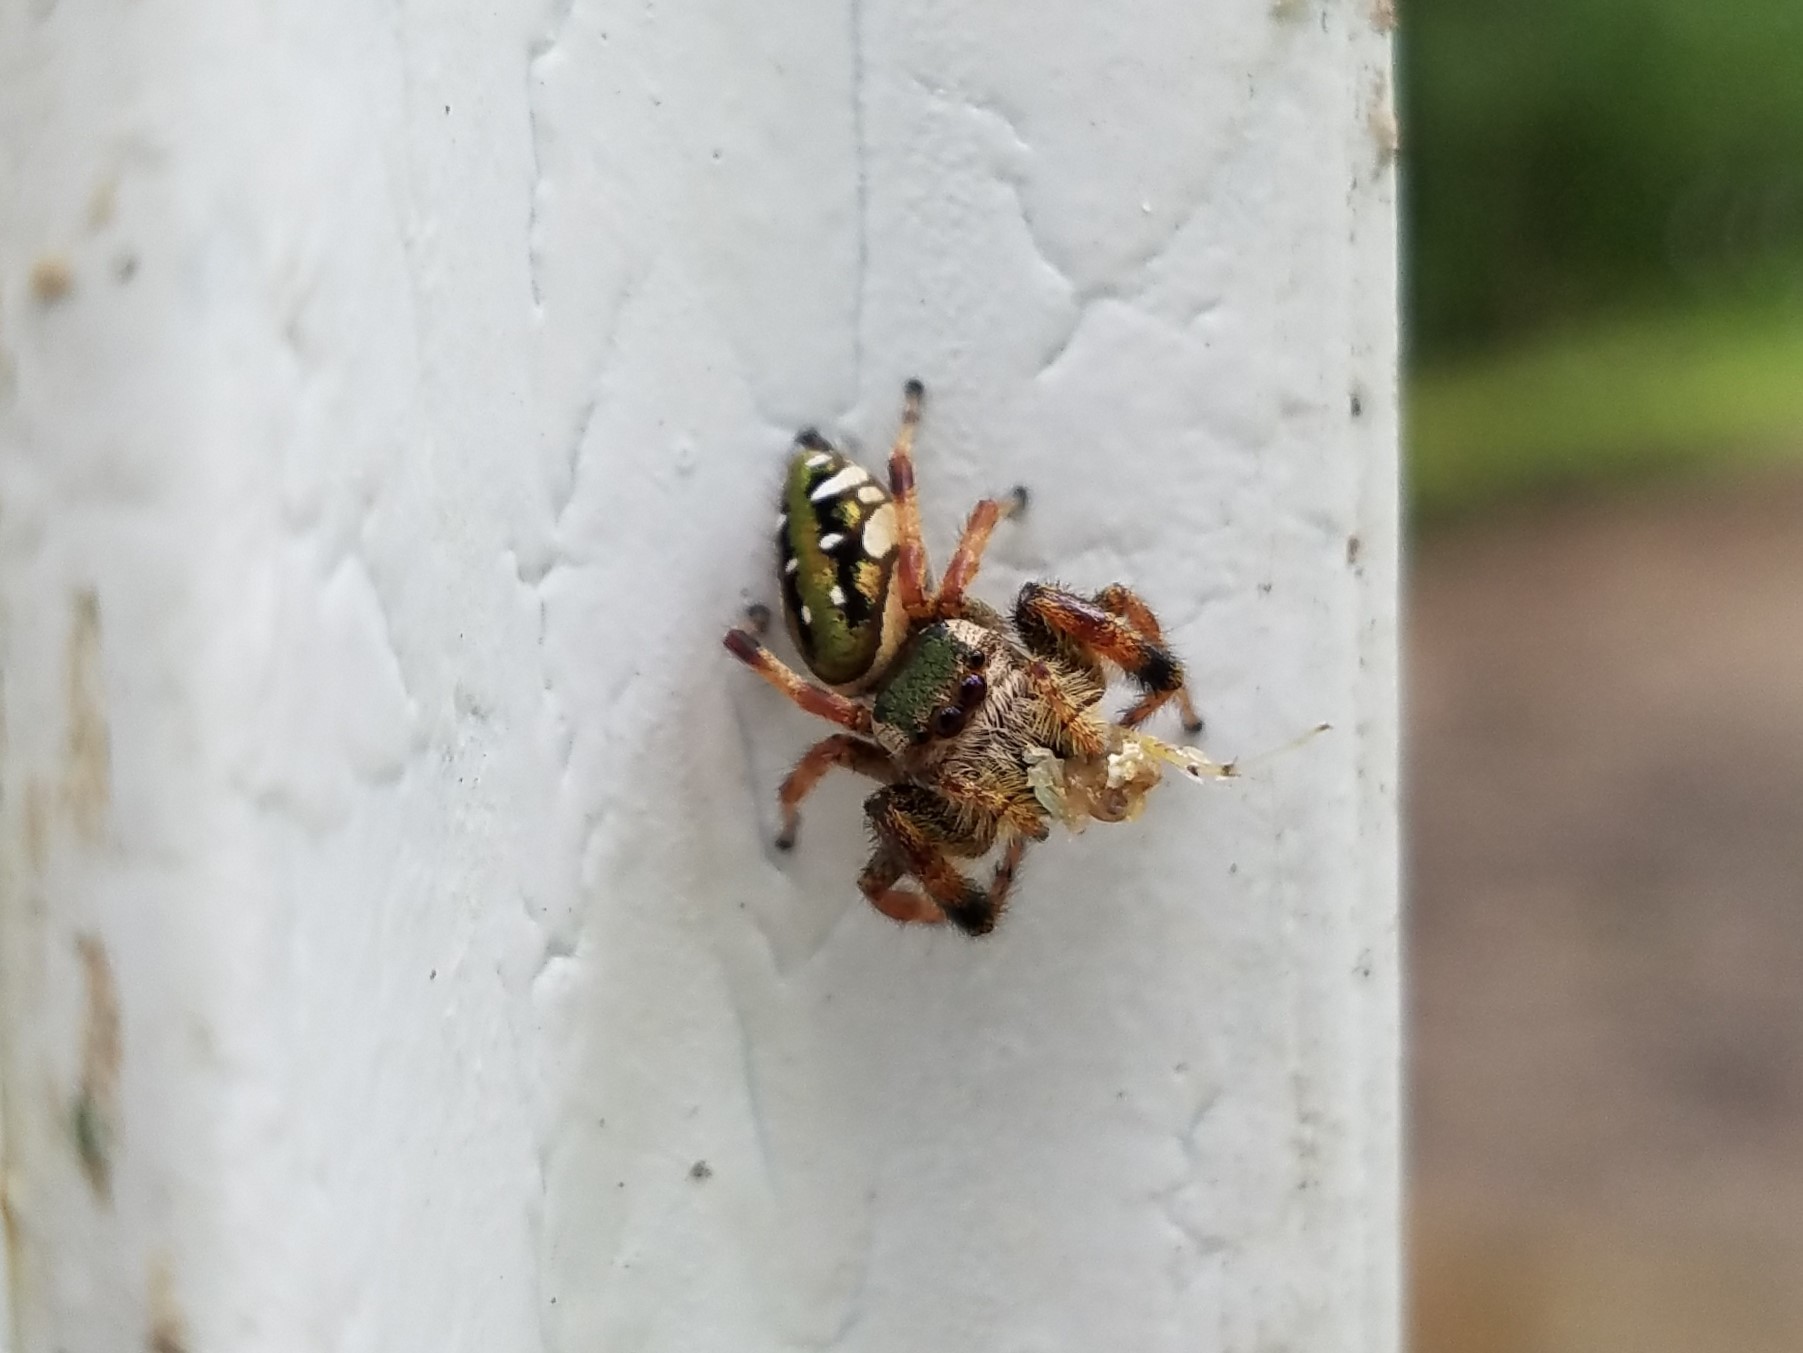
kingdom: Animalia
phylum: Arthropoda
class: Arachnida
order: Araneae
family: Salticidae
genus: Paraphidippus
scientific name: Paraphidippus aurantius
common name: Jumping spiders
